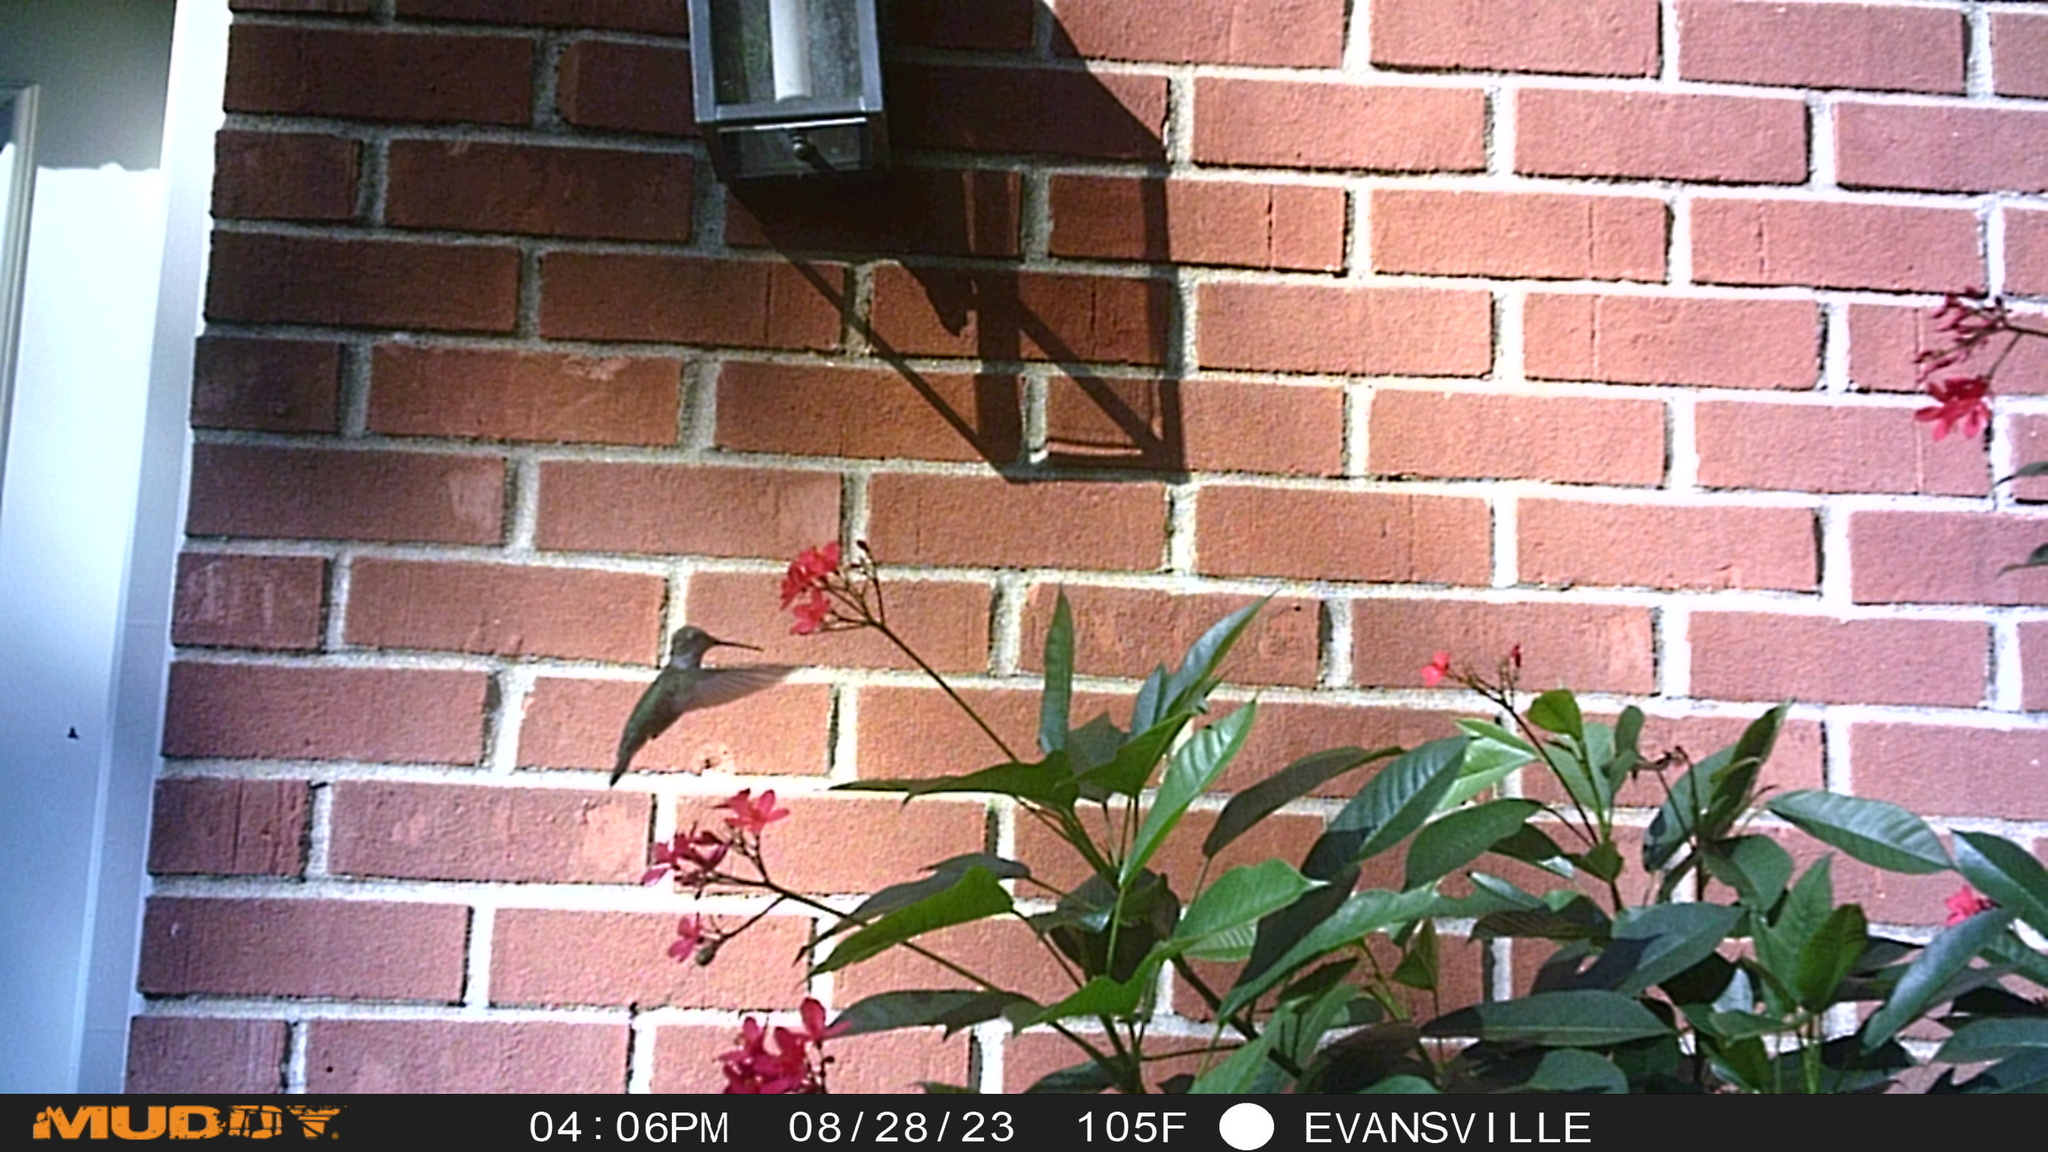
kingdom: Animalia
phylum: Chordata
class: Aves
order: Apodiformes
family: Trochilidae
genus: Archilochus
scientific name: Archilochus colubris
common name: Ruby-throated hummingbird
